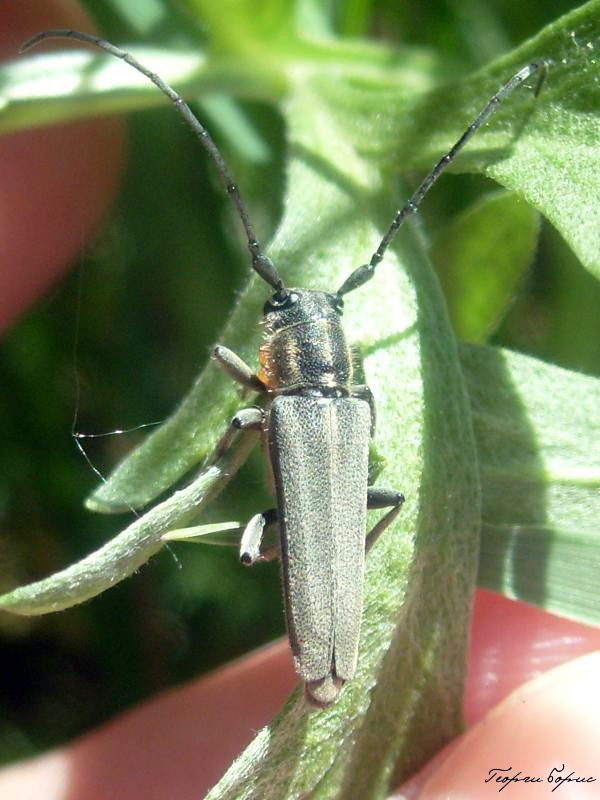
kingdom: Animalia
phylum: Arthropoda
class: Insecta
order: Coleoptera
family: Cerambycidae
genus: Phytoecia
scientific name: Phytoecia nigricornis
